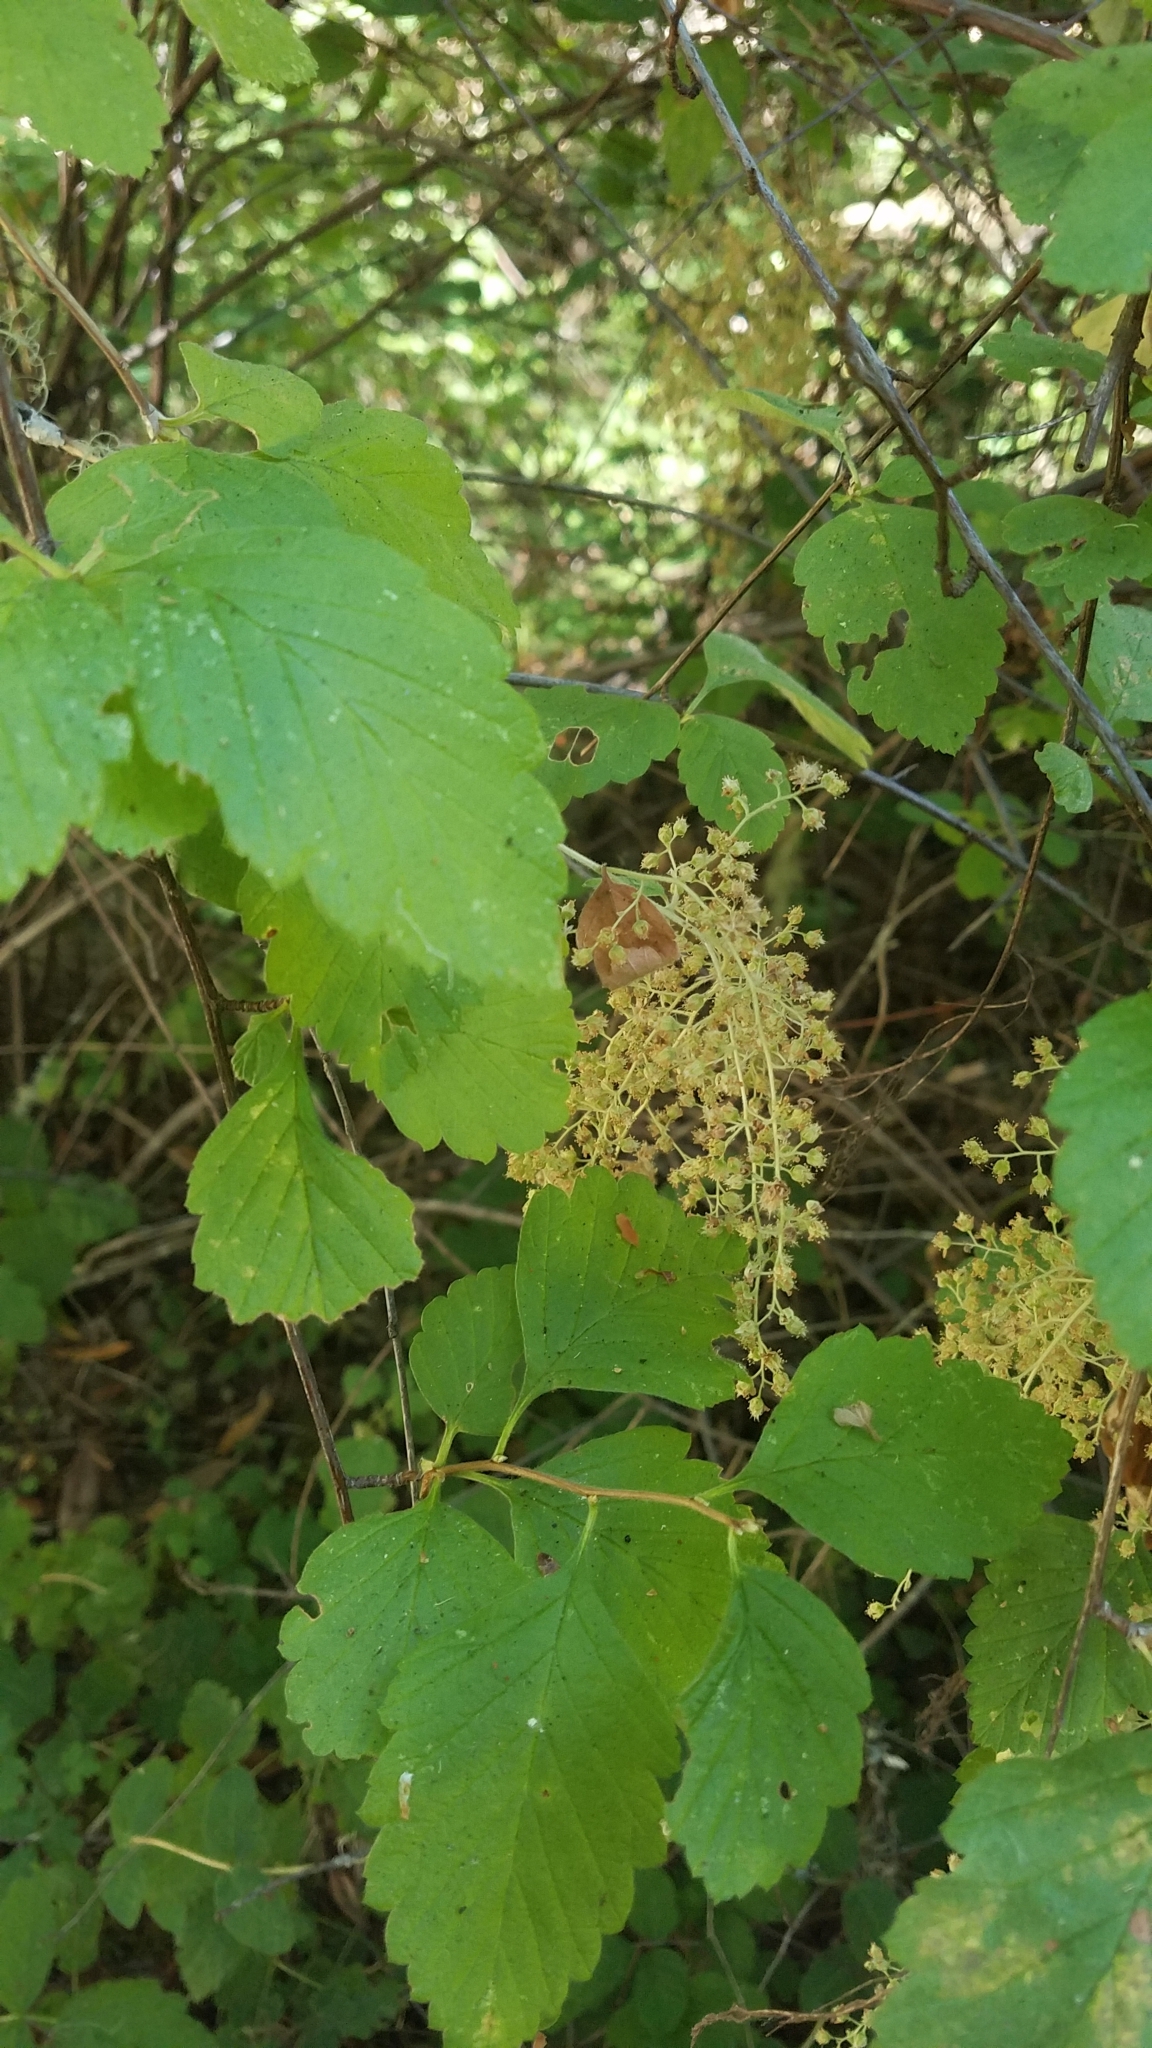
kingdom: Plantae
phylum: Tracheophyta
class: Magnoliopsida
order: Rosales
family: Rosaceae
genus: Holodiscus
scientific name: Holodiscus discolor
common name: Oceanspray
